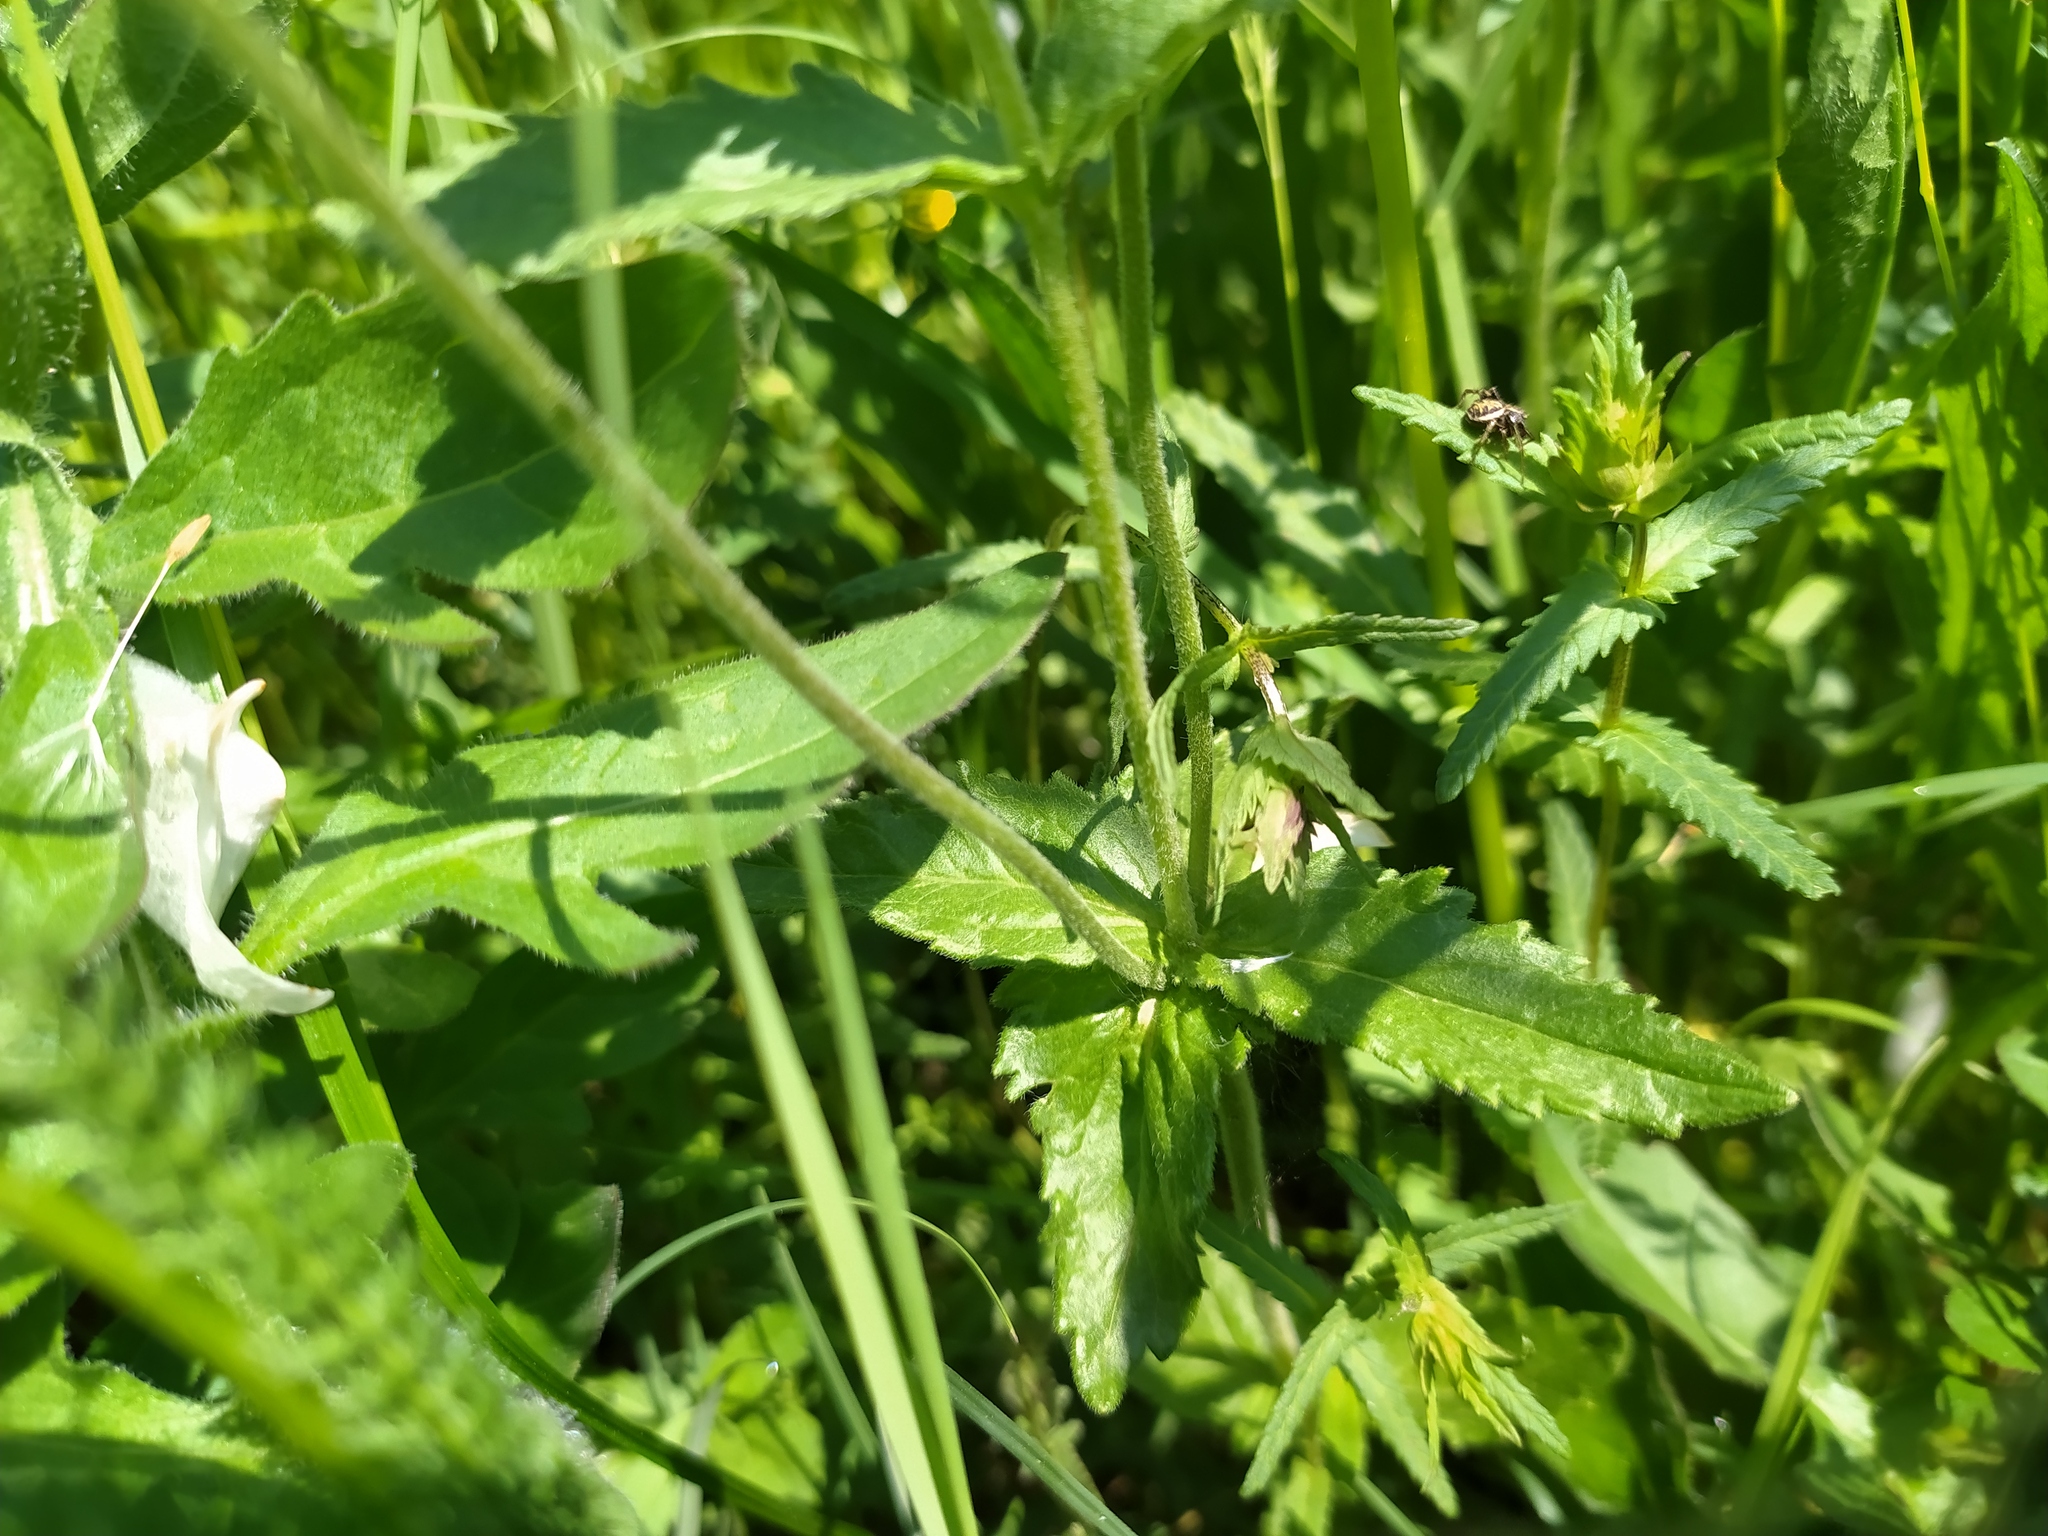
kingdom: Plantae
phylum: Tracheophyta
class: Magnoliopsida
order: Lamiales
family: Plantaginaceae
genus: Veronica
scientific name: Veronica teucrium
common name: Large speedwell
